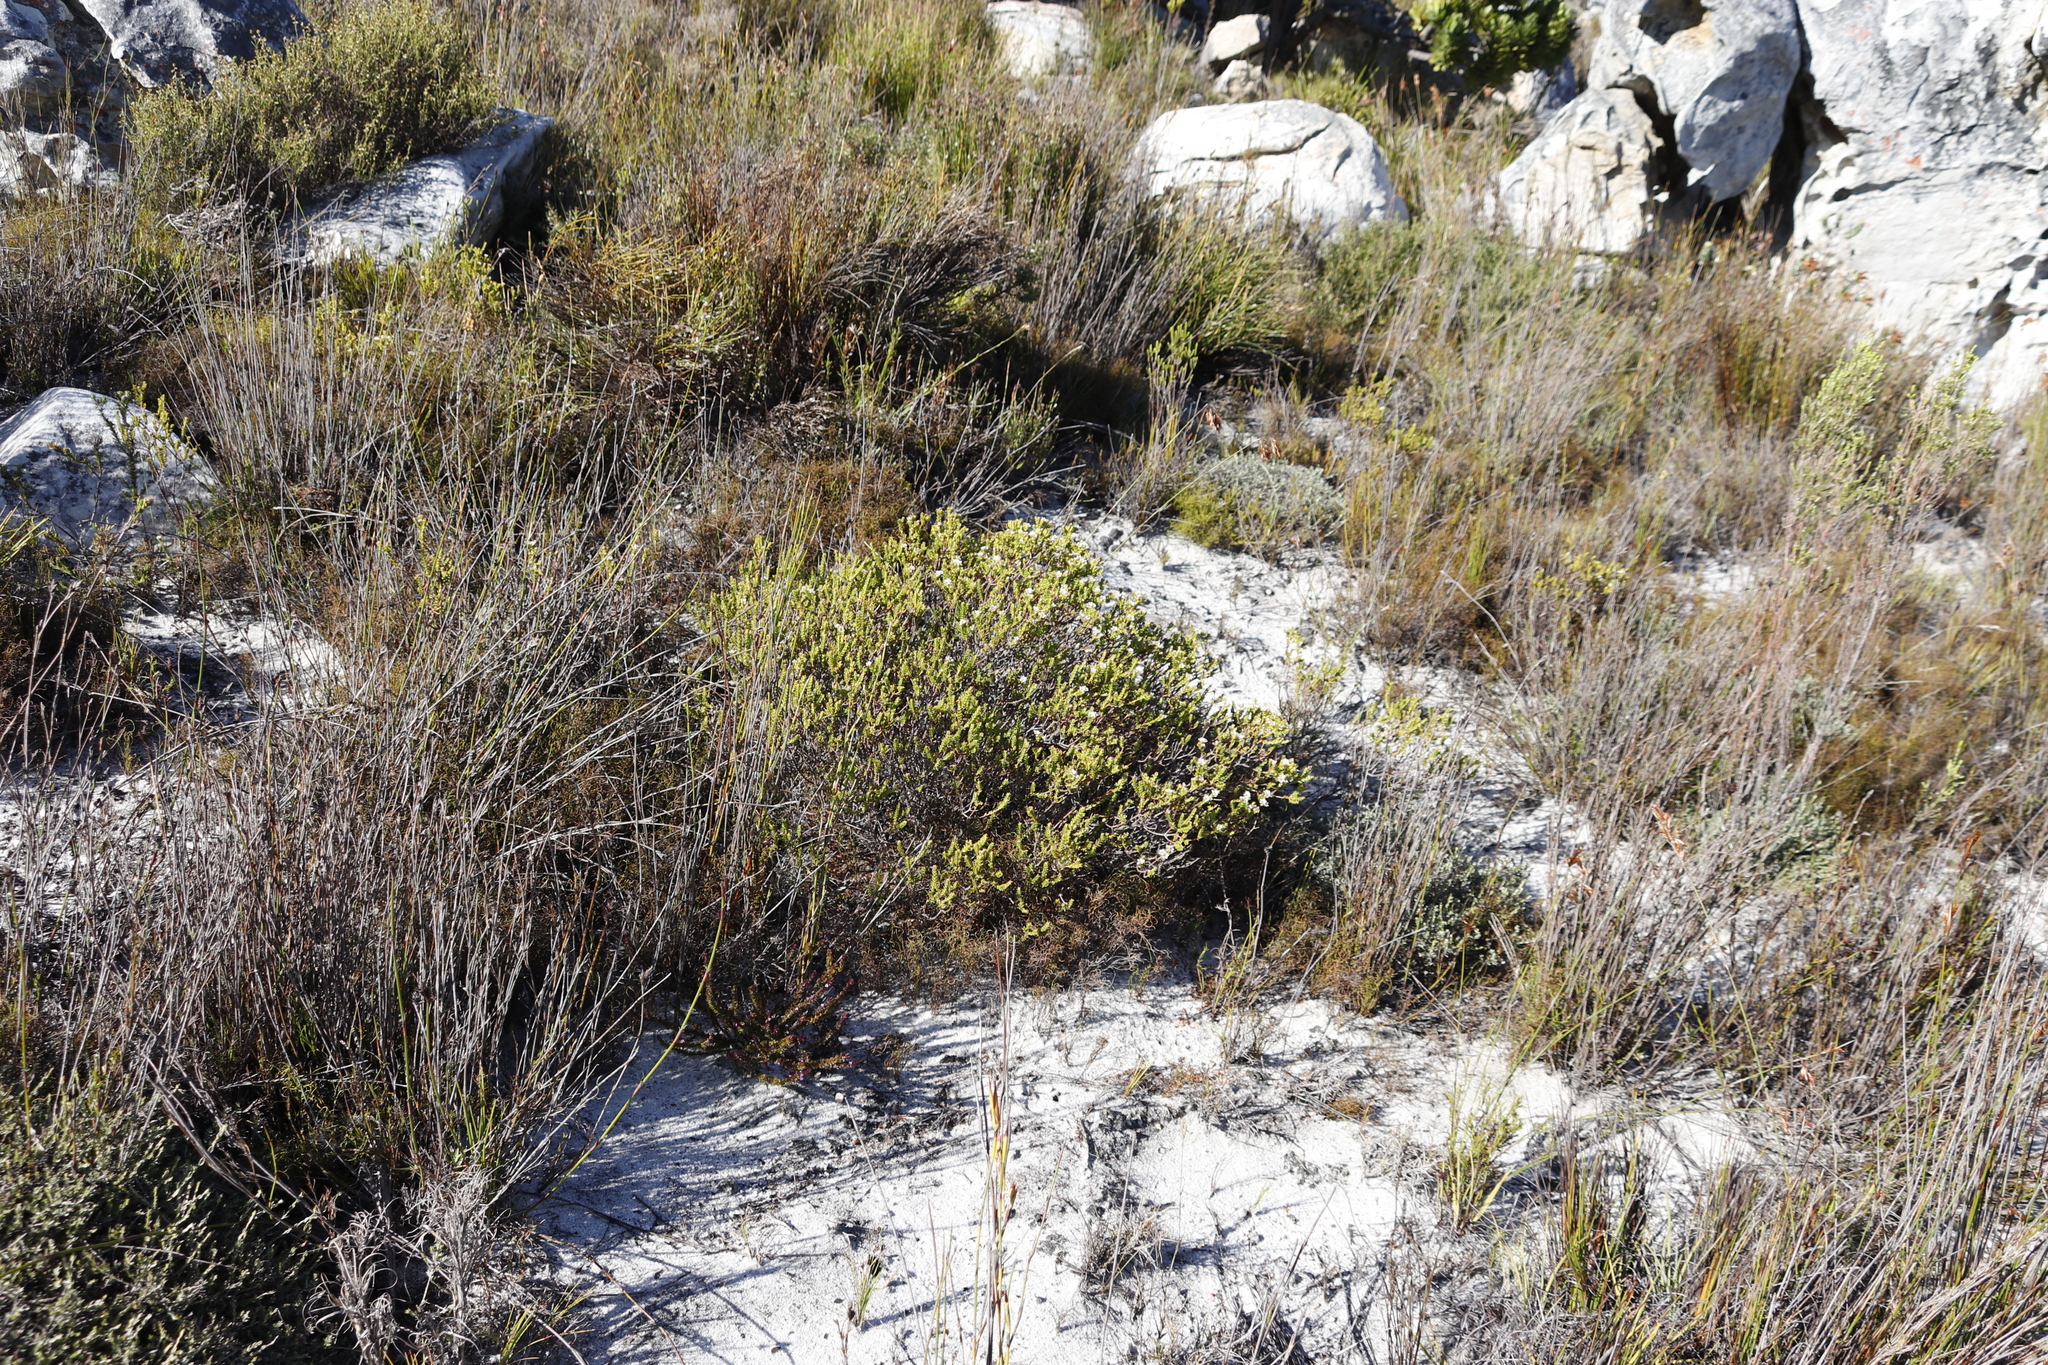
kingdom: Plantae
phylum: Tracheophyta
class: Magnoliopsida
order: Sapindales
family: Rutaceae
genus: Diosma
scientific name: Diosma oppositifolia
